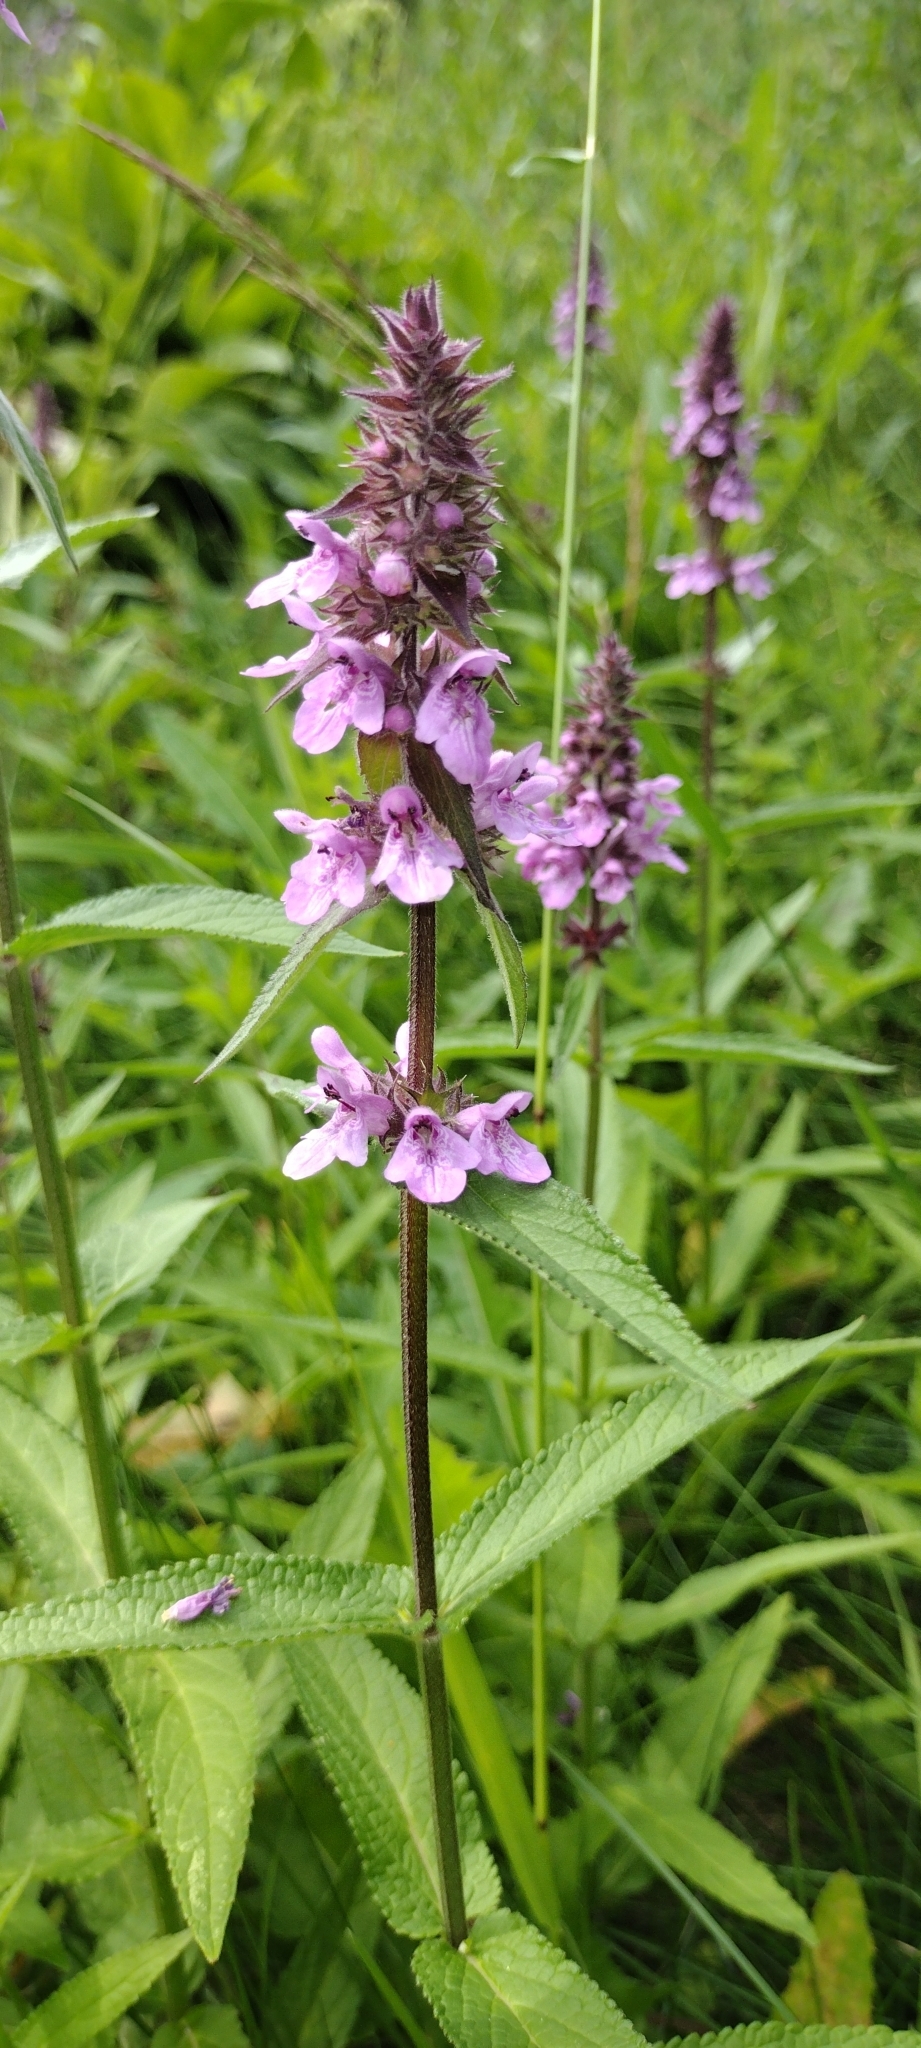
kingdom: Plantae
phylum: Tracheophyta
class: Magnoliopsida
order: Lamiales
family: Lamiaceae
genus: Stachys
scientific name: Stachys palustris
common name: Marsh woundwort
